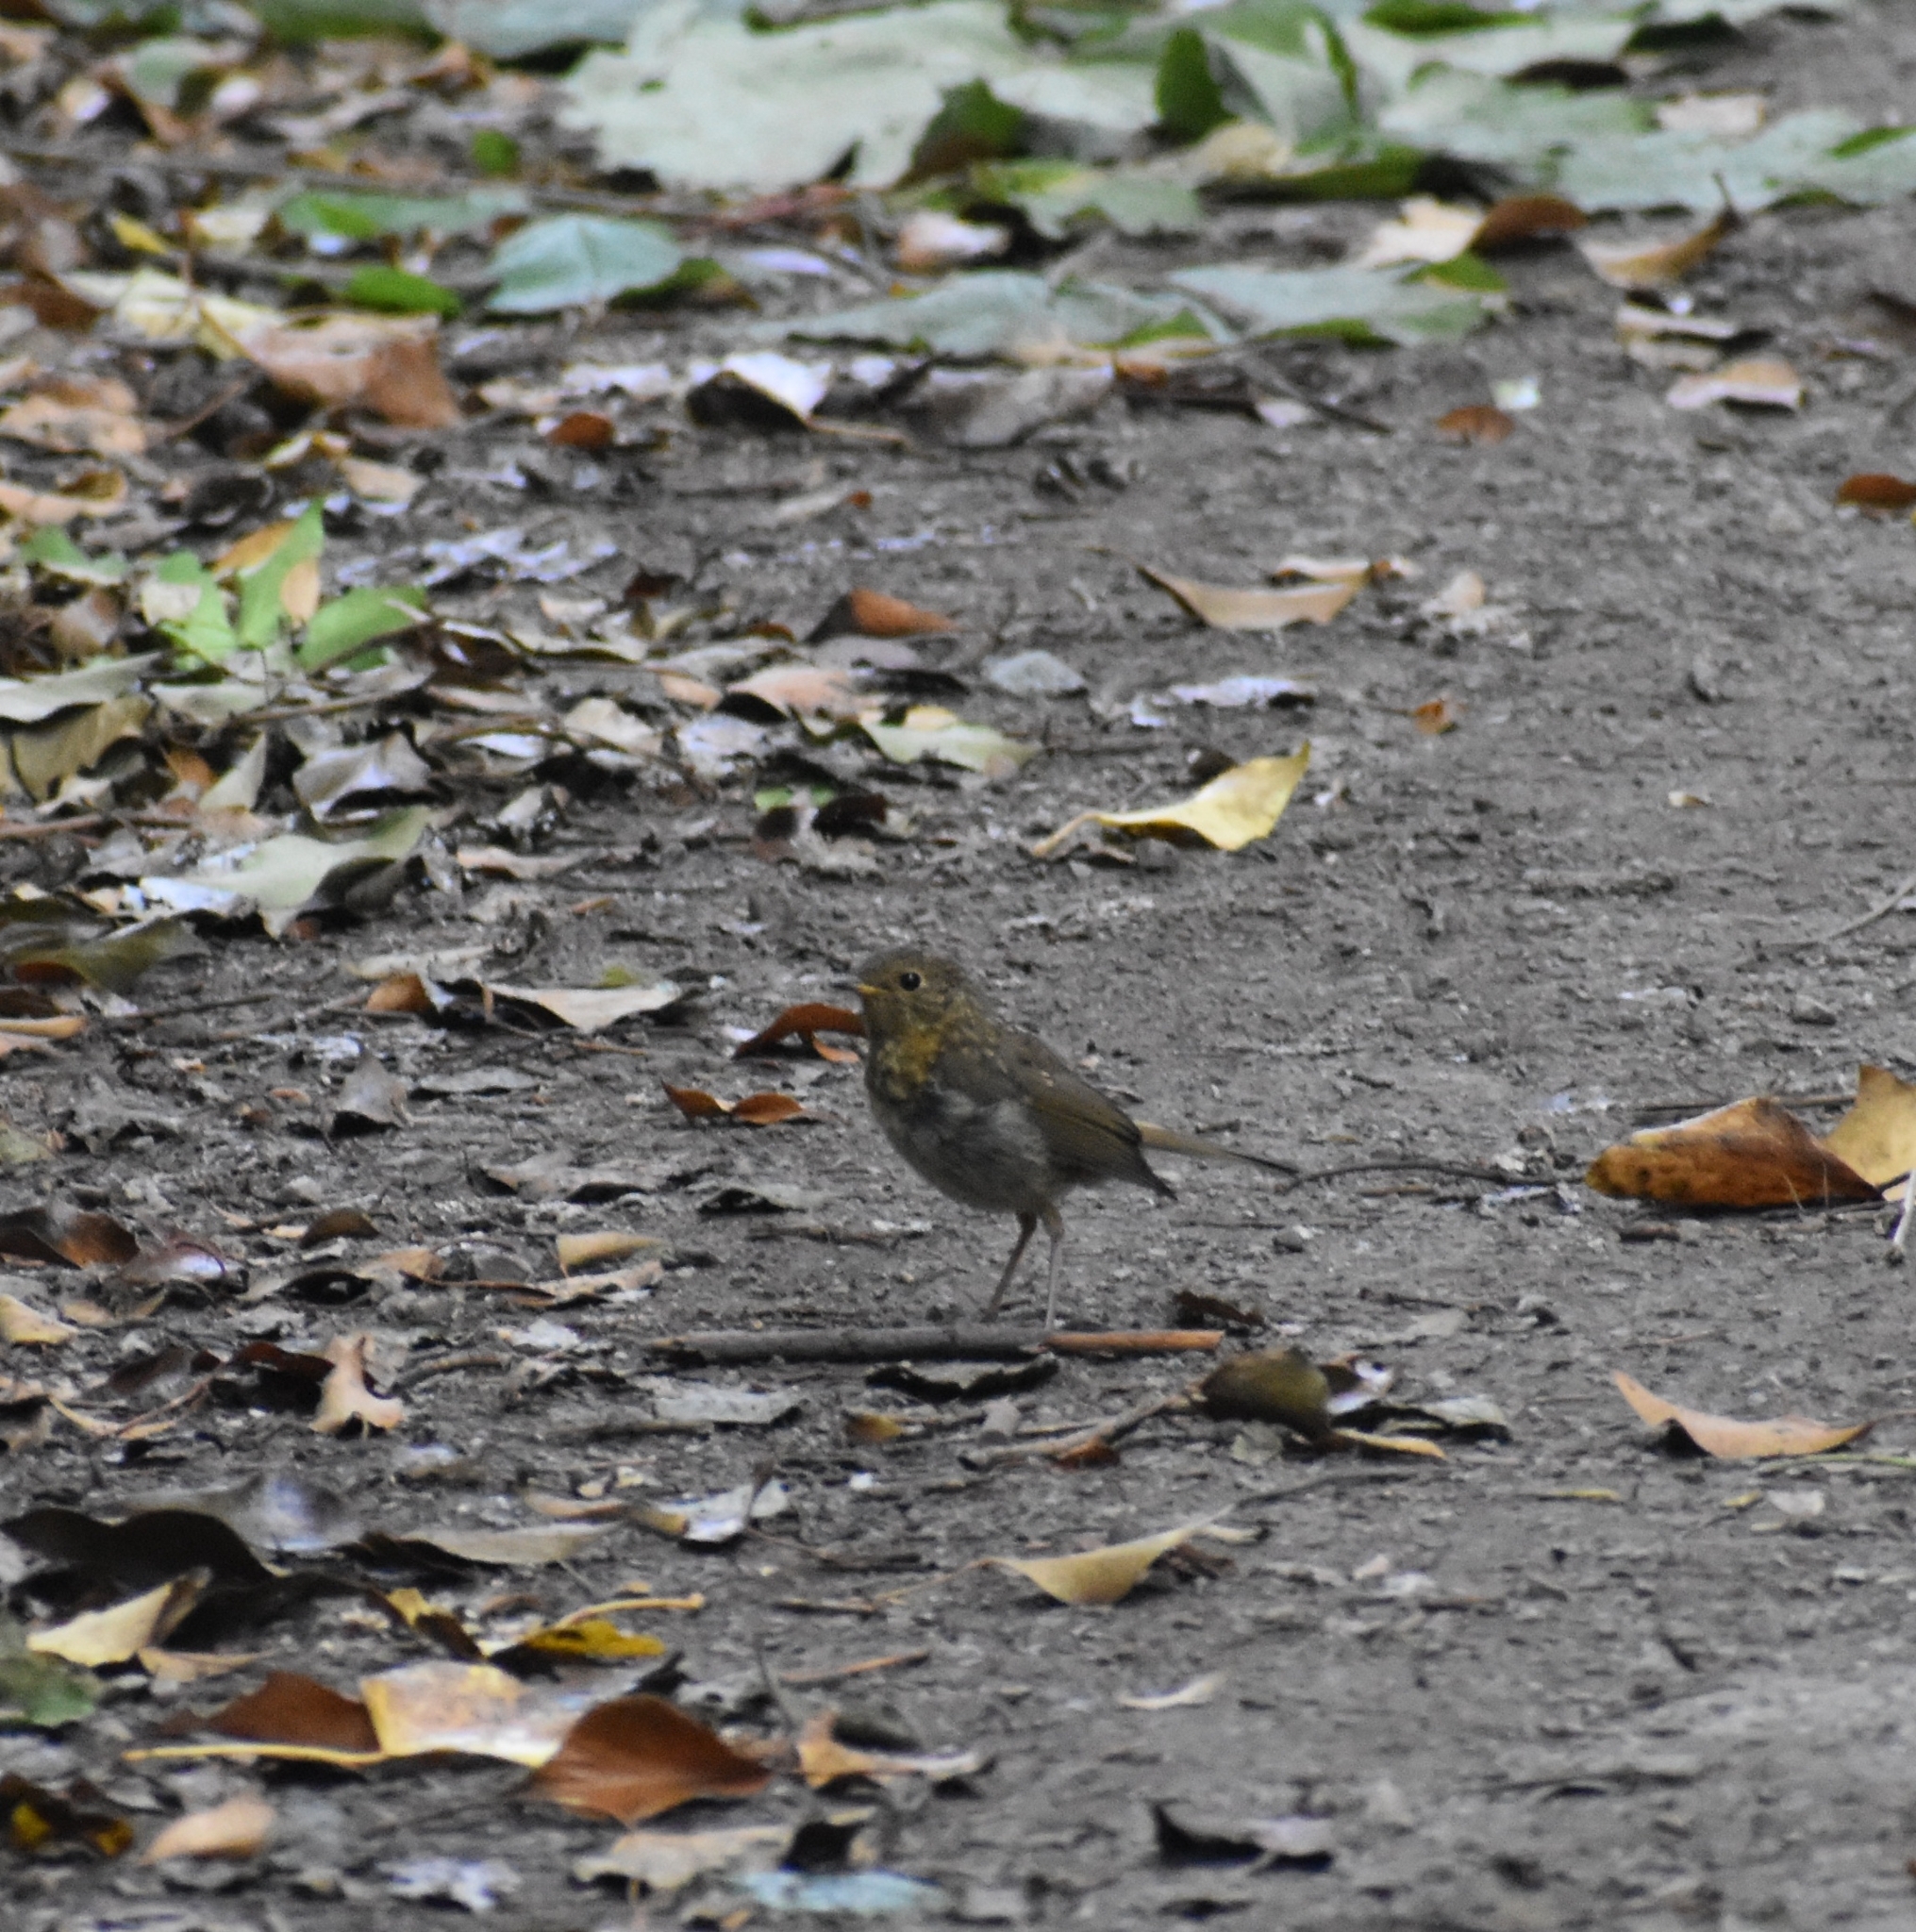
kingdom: Animalia
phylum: Chordata
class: Aves
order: Passeriformes
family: Muscicapidae
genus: Erithacus
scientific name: Erithacus rubecula
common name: European robin
